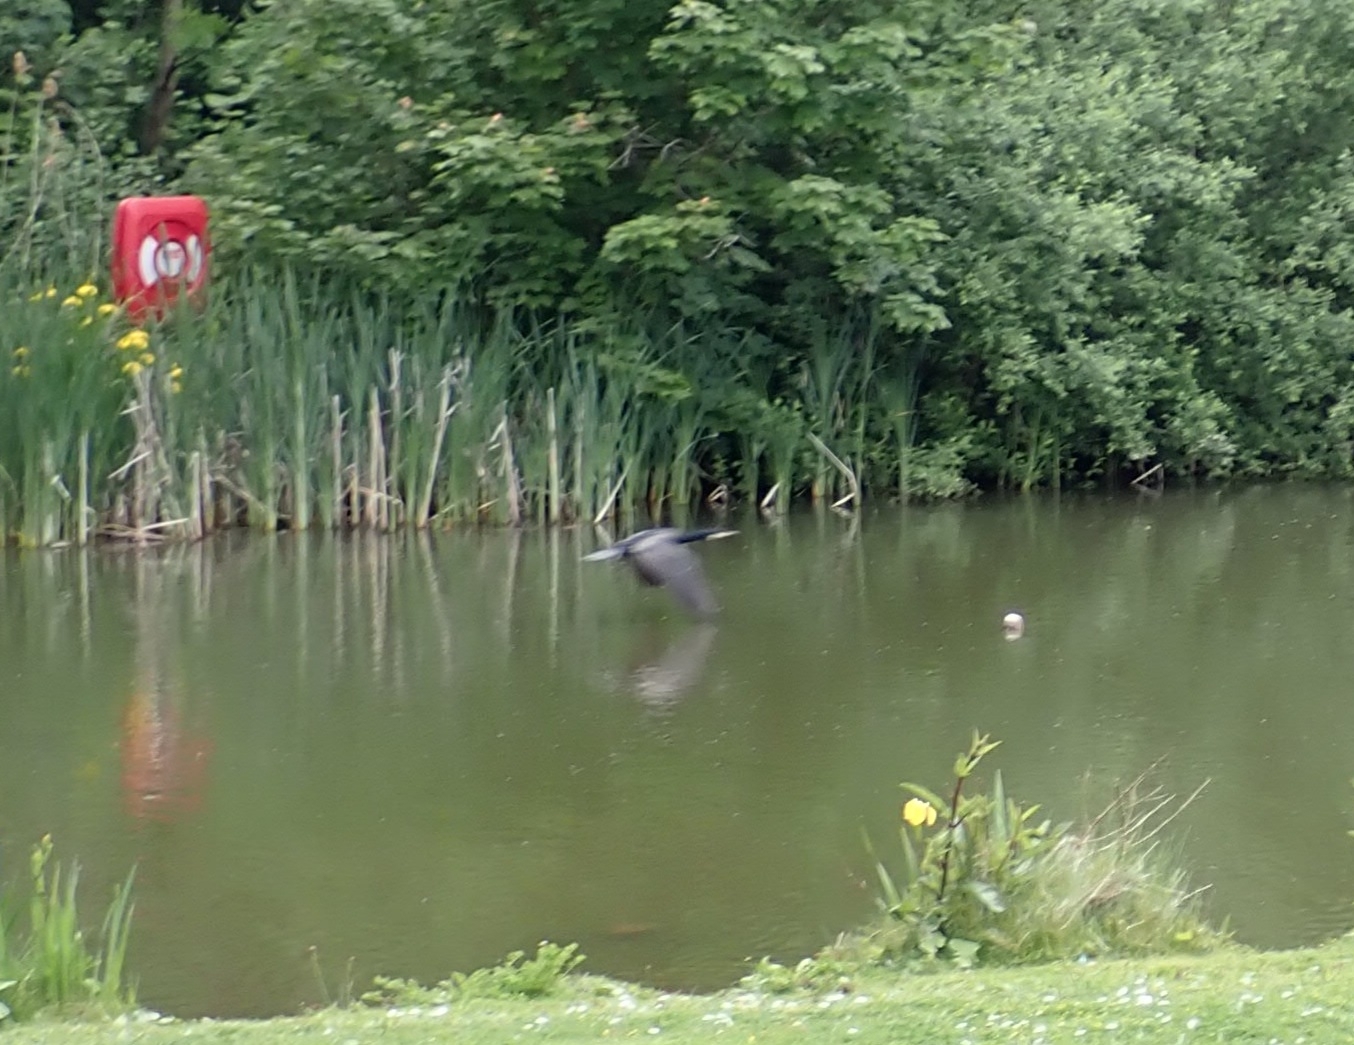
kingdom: Animalia
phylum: Chordata
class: Aves
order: Suliformes
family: Phalacrocoracidae
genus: Phalacrocorax
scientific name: Phalacrocorax carbo
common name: Great cormorant
